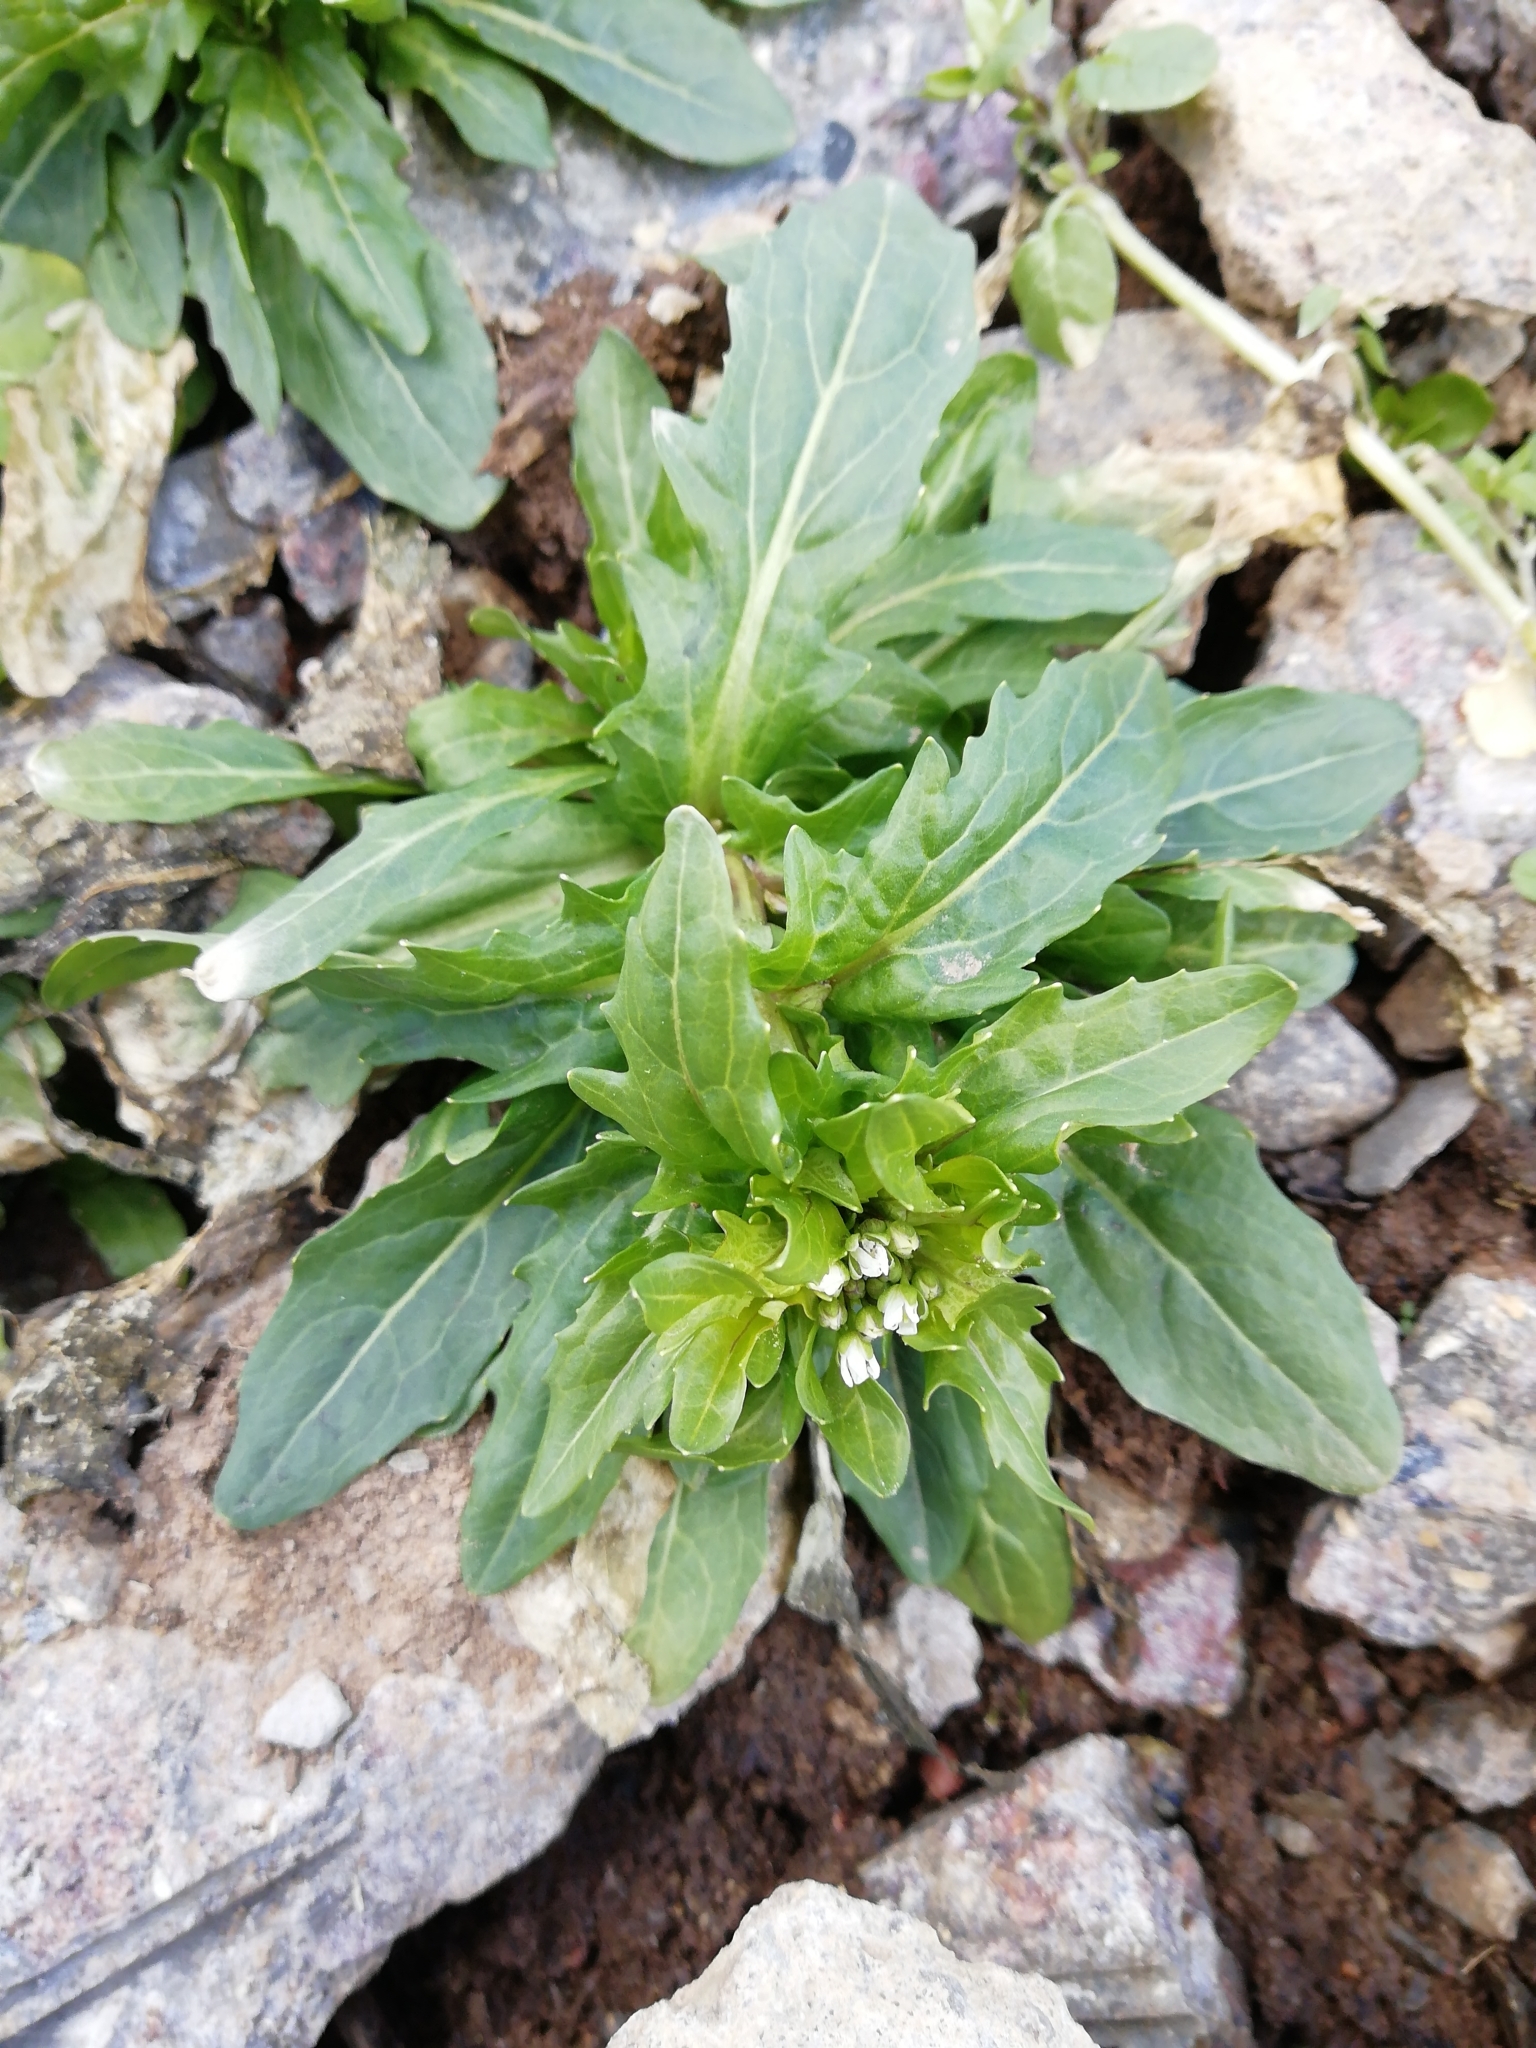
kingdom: Plantae
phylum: Tracheophyta
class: Magnoliopsida
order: Brassicales
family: Brassicaceae
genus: Thlaspi
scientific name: Thlaspi arvense
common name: Field pennycress
